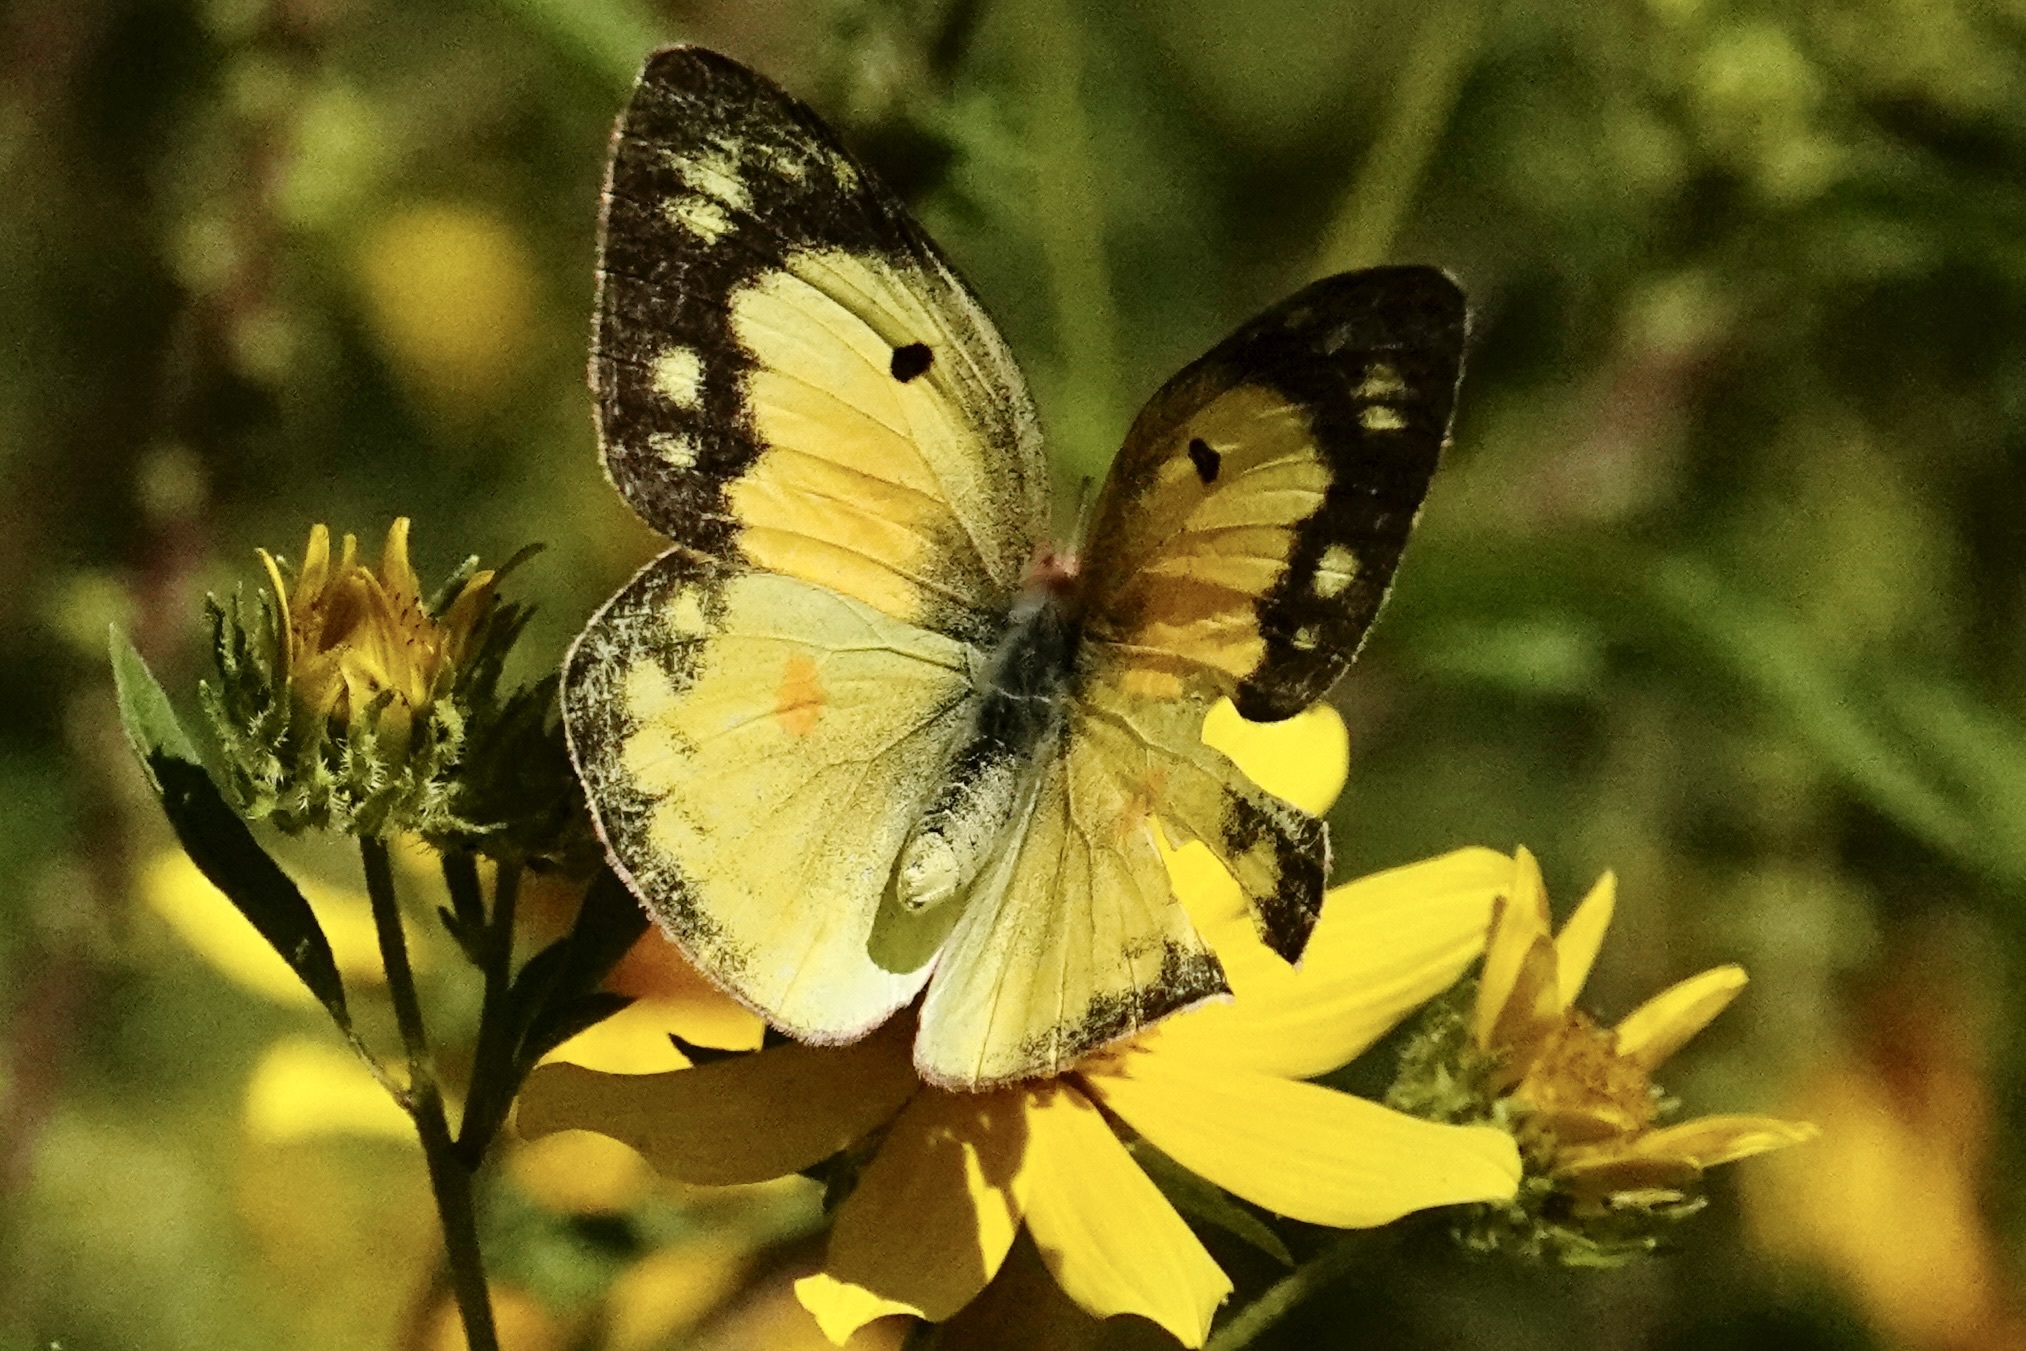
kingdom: Animalia
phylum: Arthropoda
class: Insecta
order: Lepidoptera
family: Pieridae
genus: Colias
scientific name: Colias eurytheme
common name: Alfalfa butterfly
